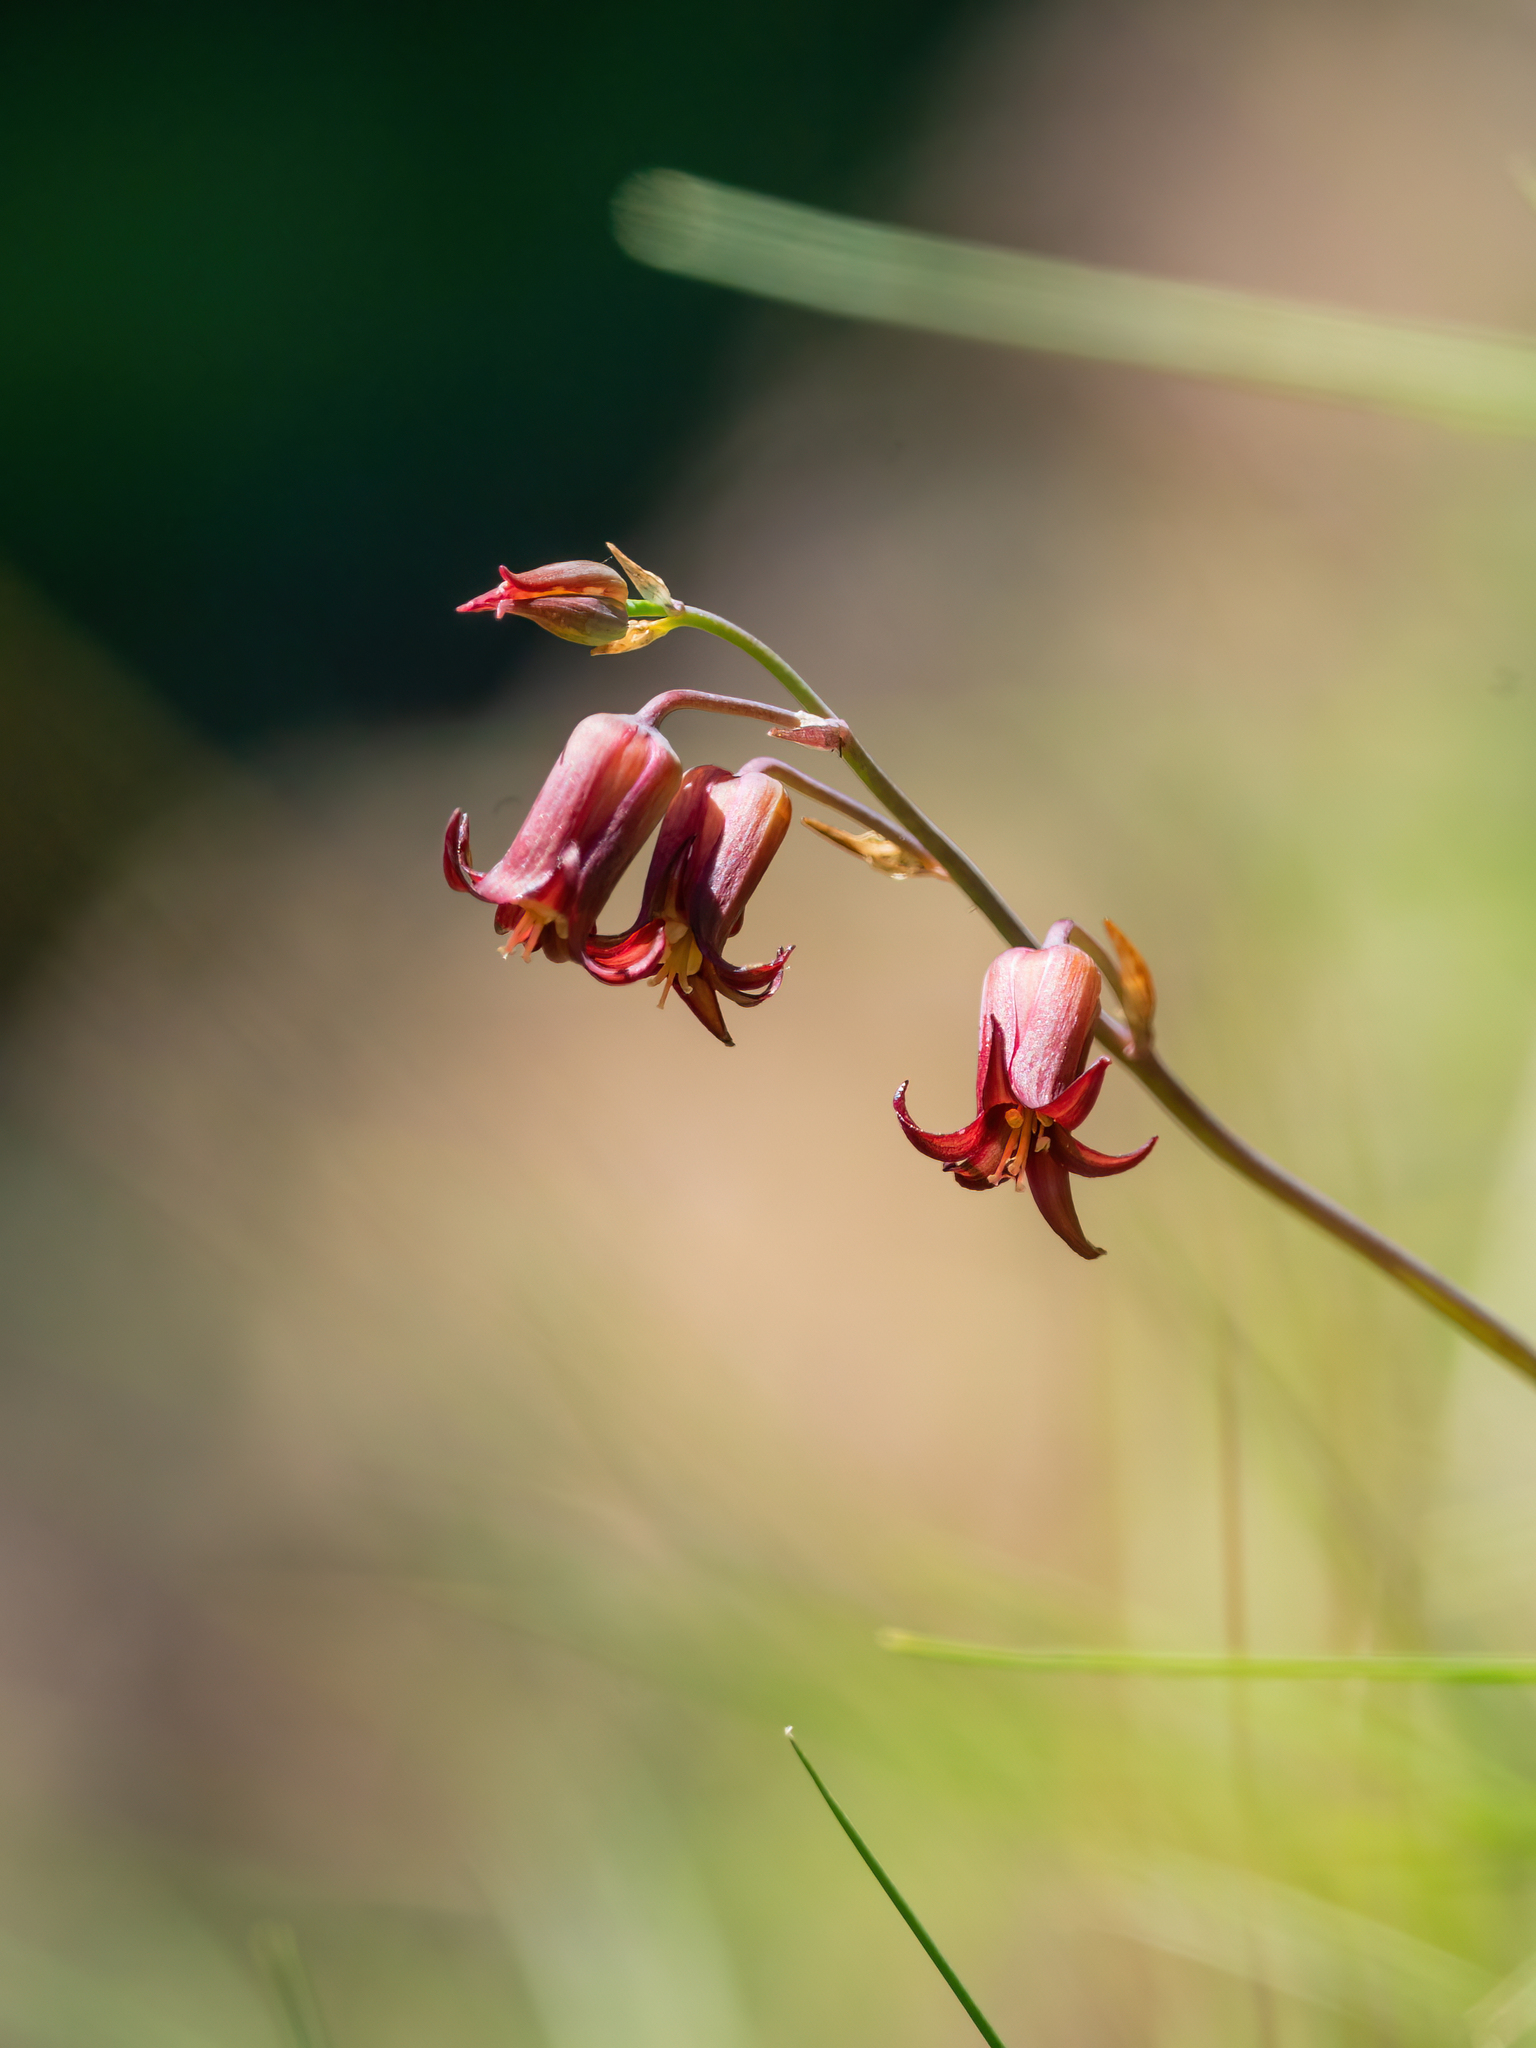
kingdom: Plantae
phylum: Tracheophyta
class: Liliopsida
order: Liliales
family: Melanthiaceae
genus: Anticlea
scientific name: Anticlea occidentalis
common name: Bronze-bells
